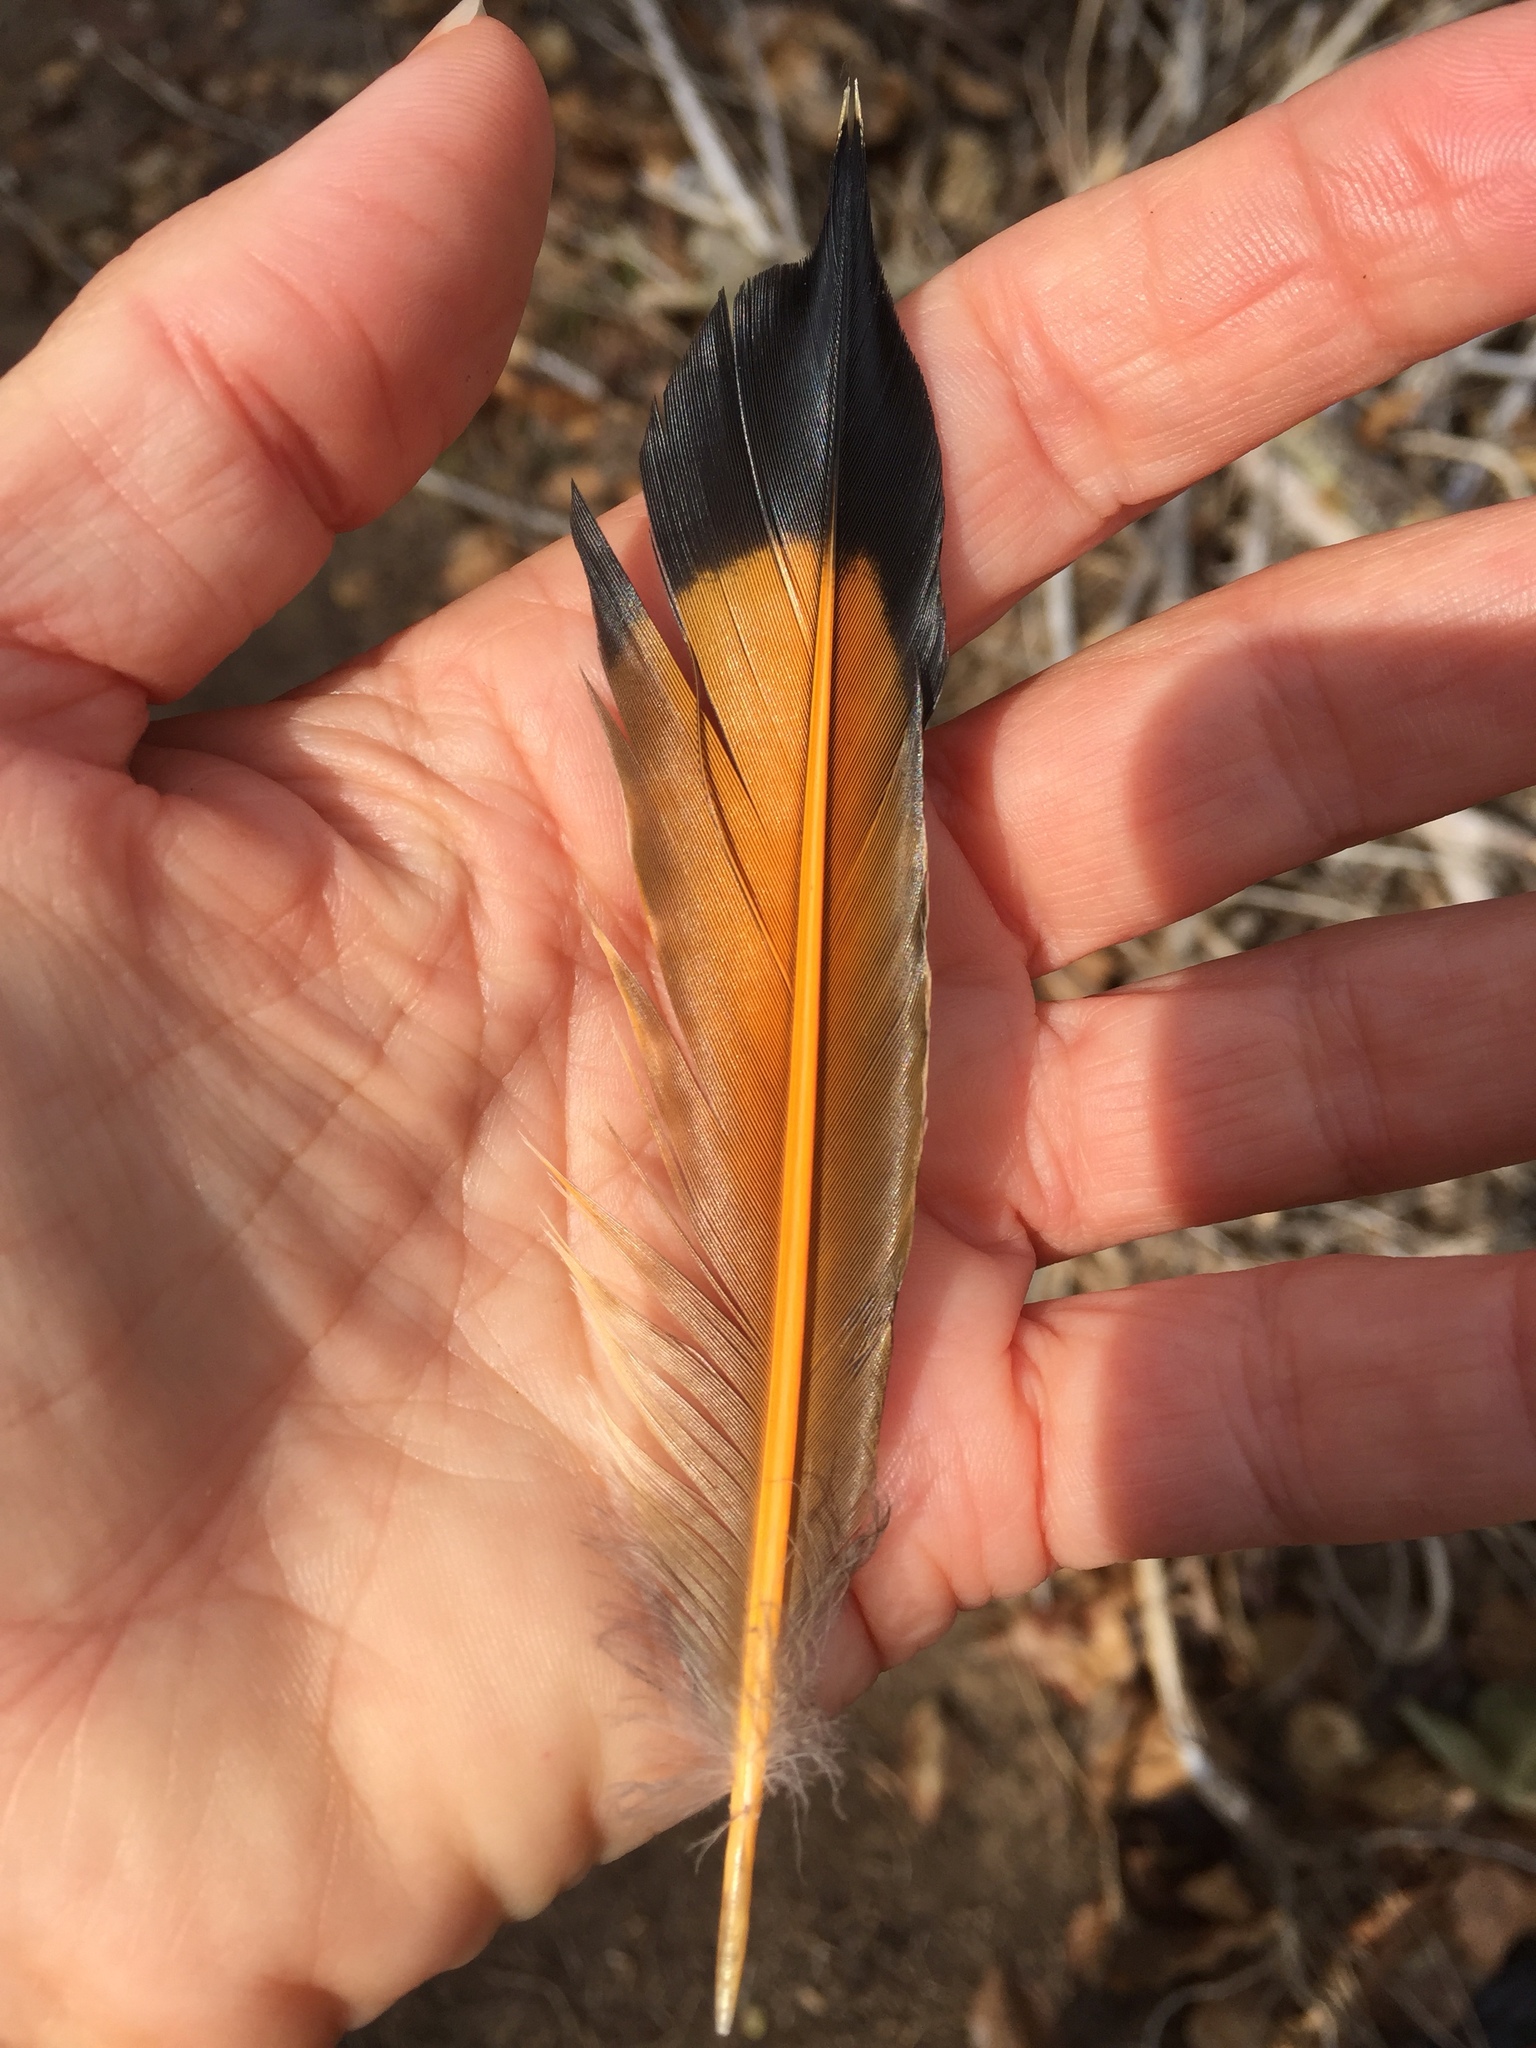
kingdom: Animalia
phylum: Chordata
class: Aves
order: Piciformes
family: Picidae
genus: Colaptes
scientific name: Colaptes auratus
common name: Northern flicker
